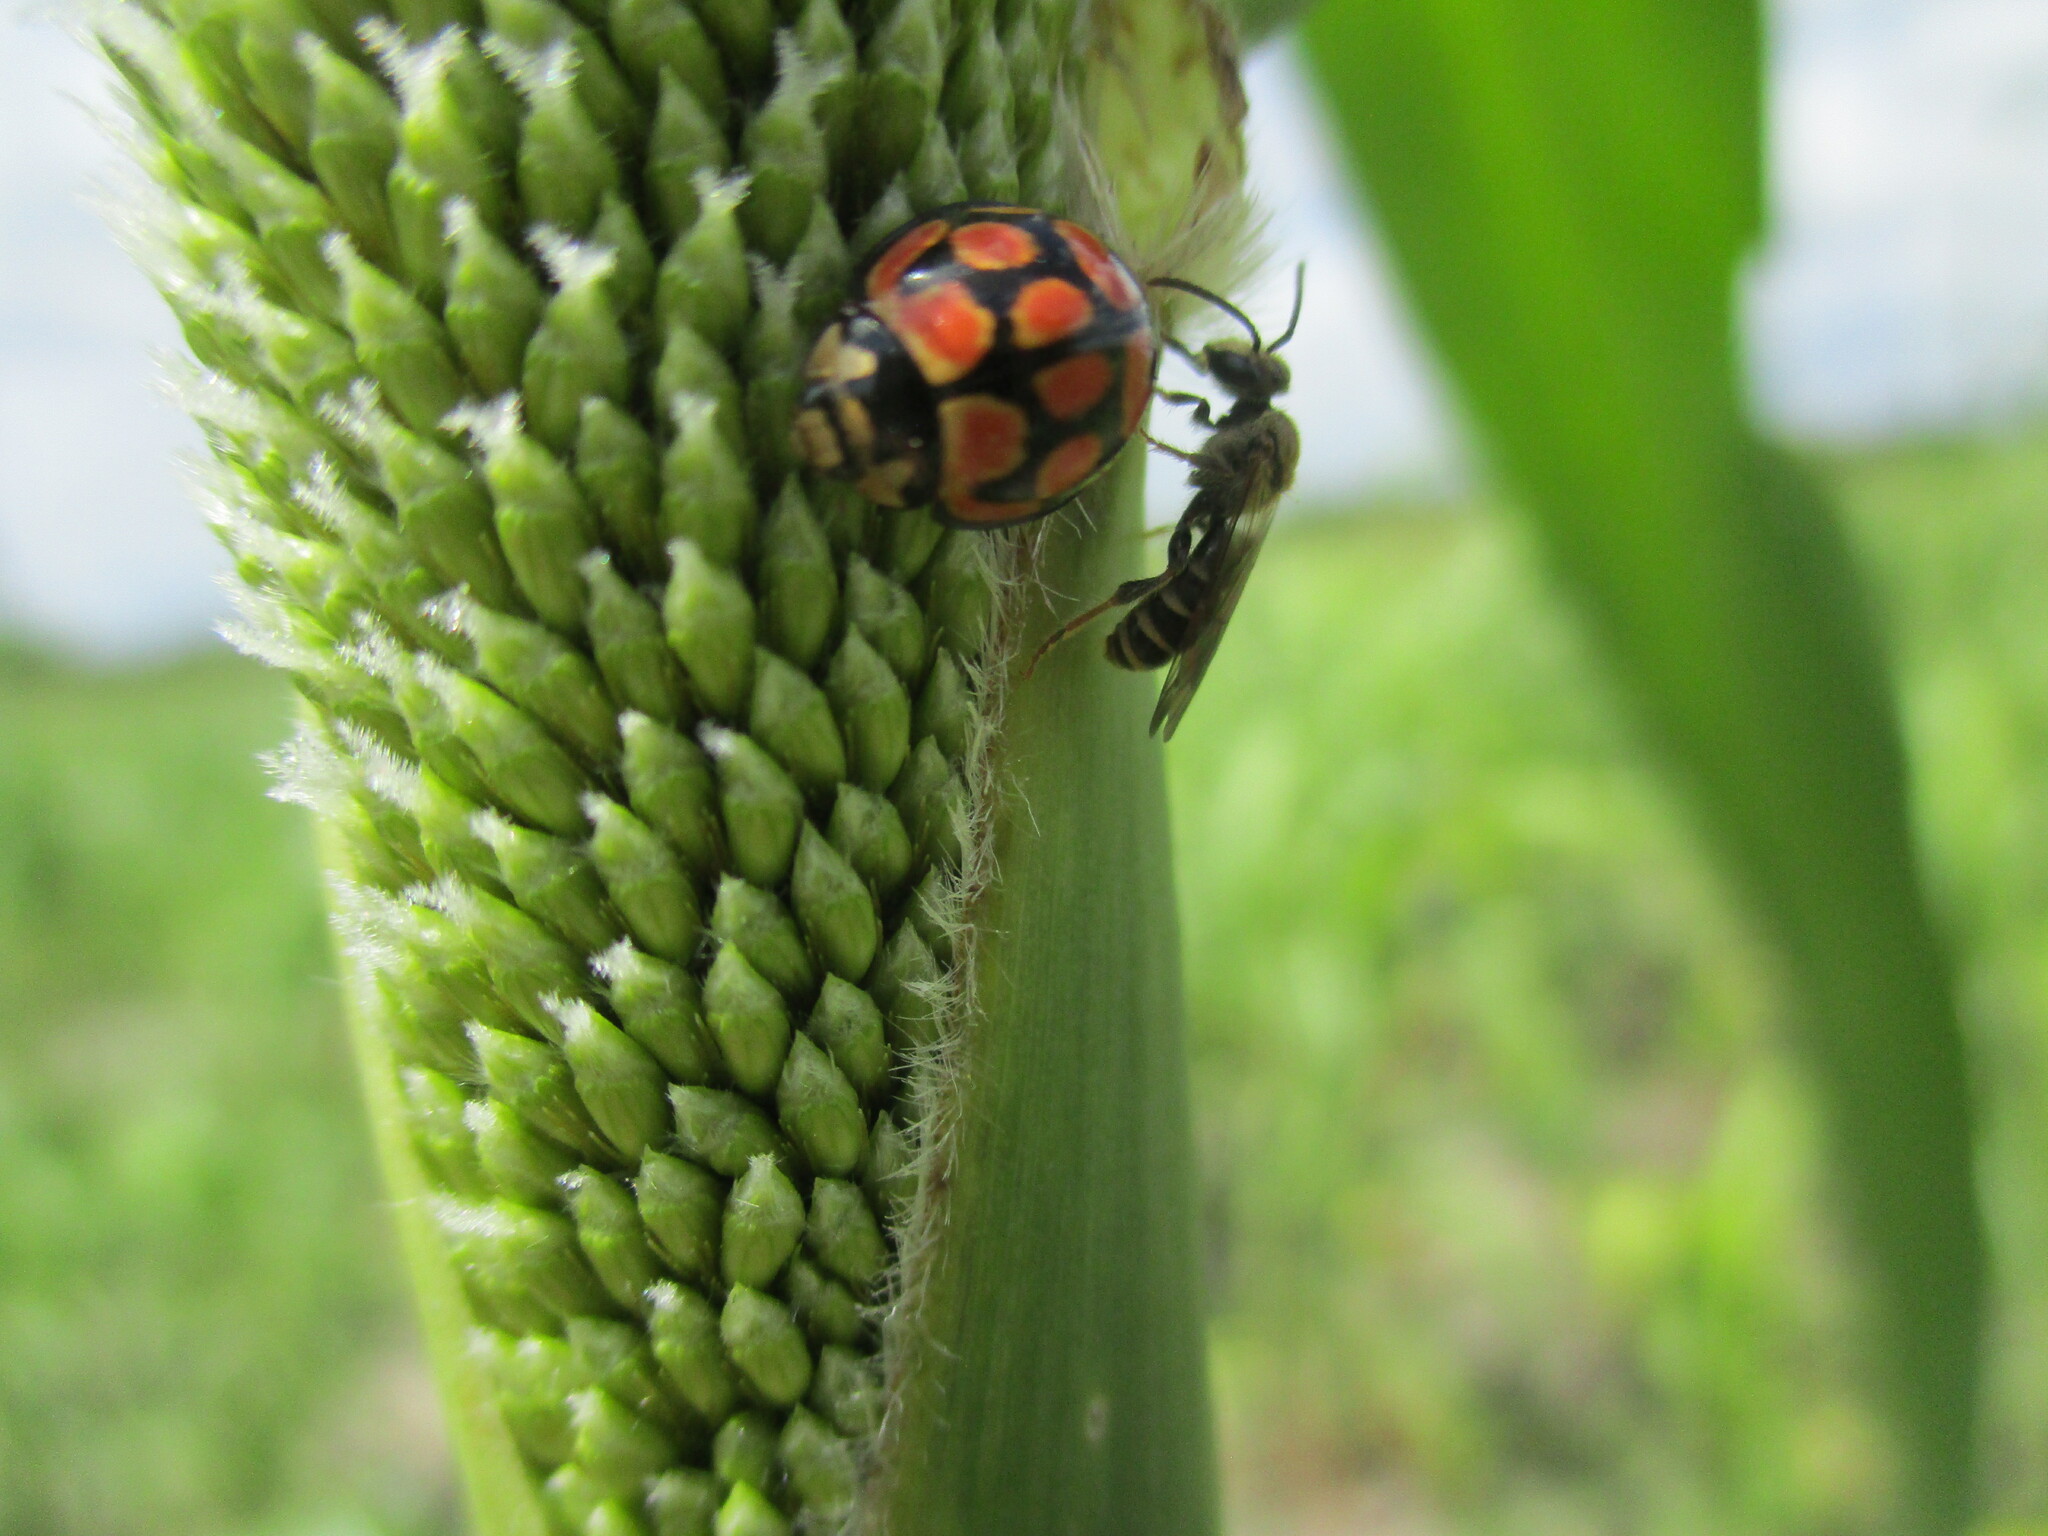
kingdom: Animalia
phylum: Arthropoda
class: Insecta
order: Coleoptera
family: Coccinellidae
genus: Cheilomenes
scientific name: Cheilomenes lunata
